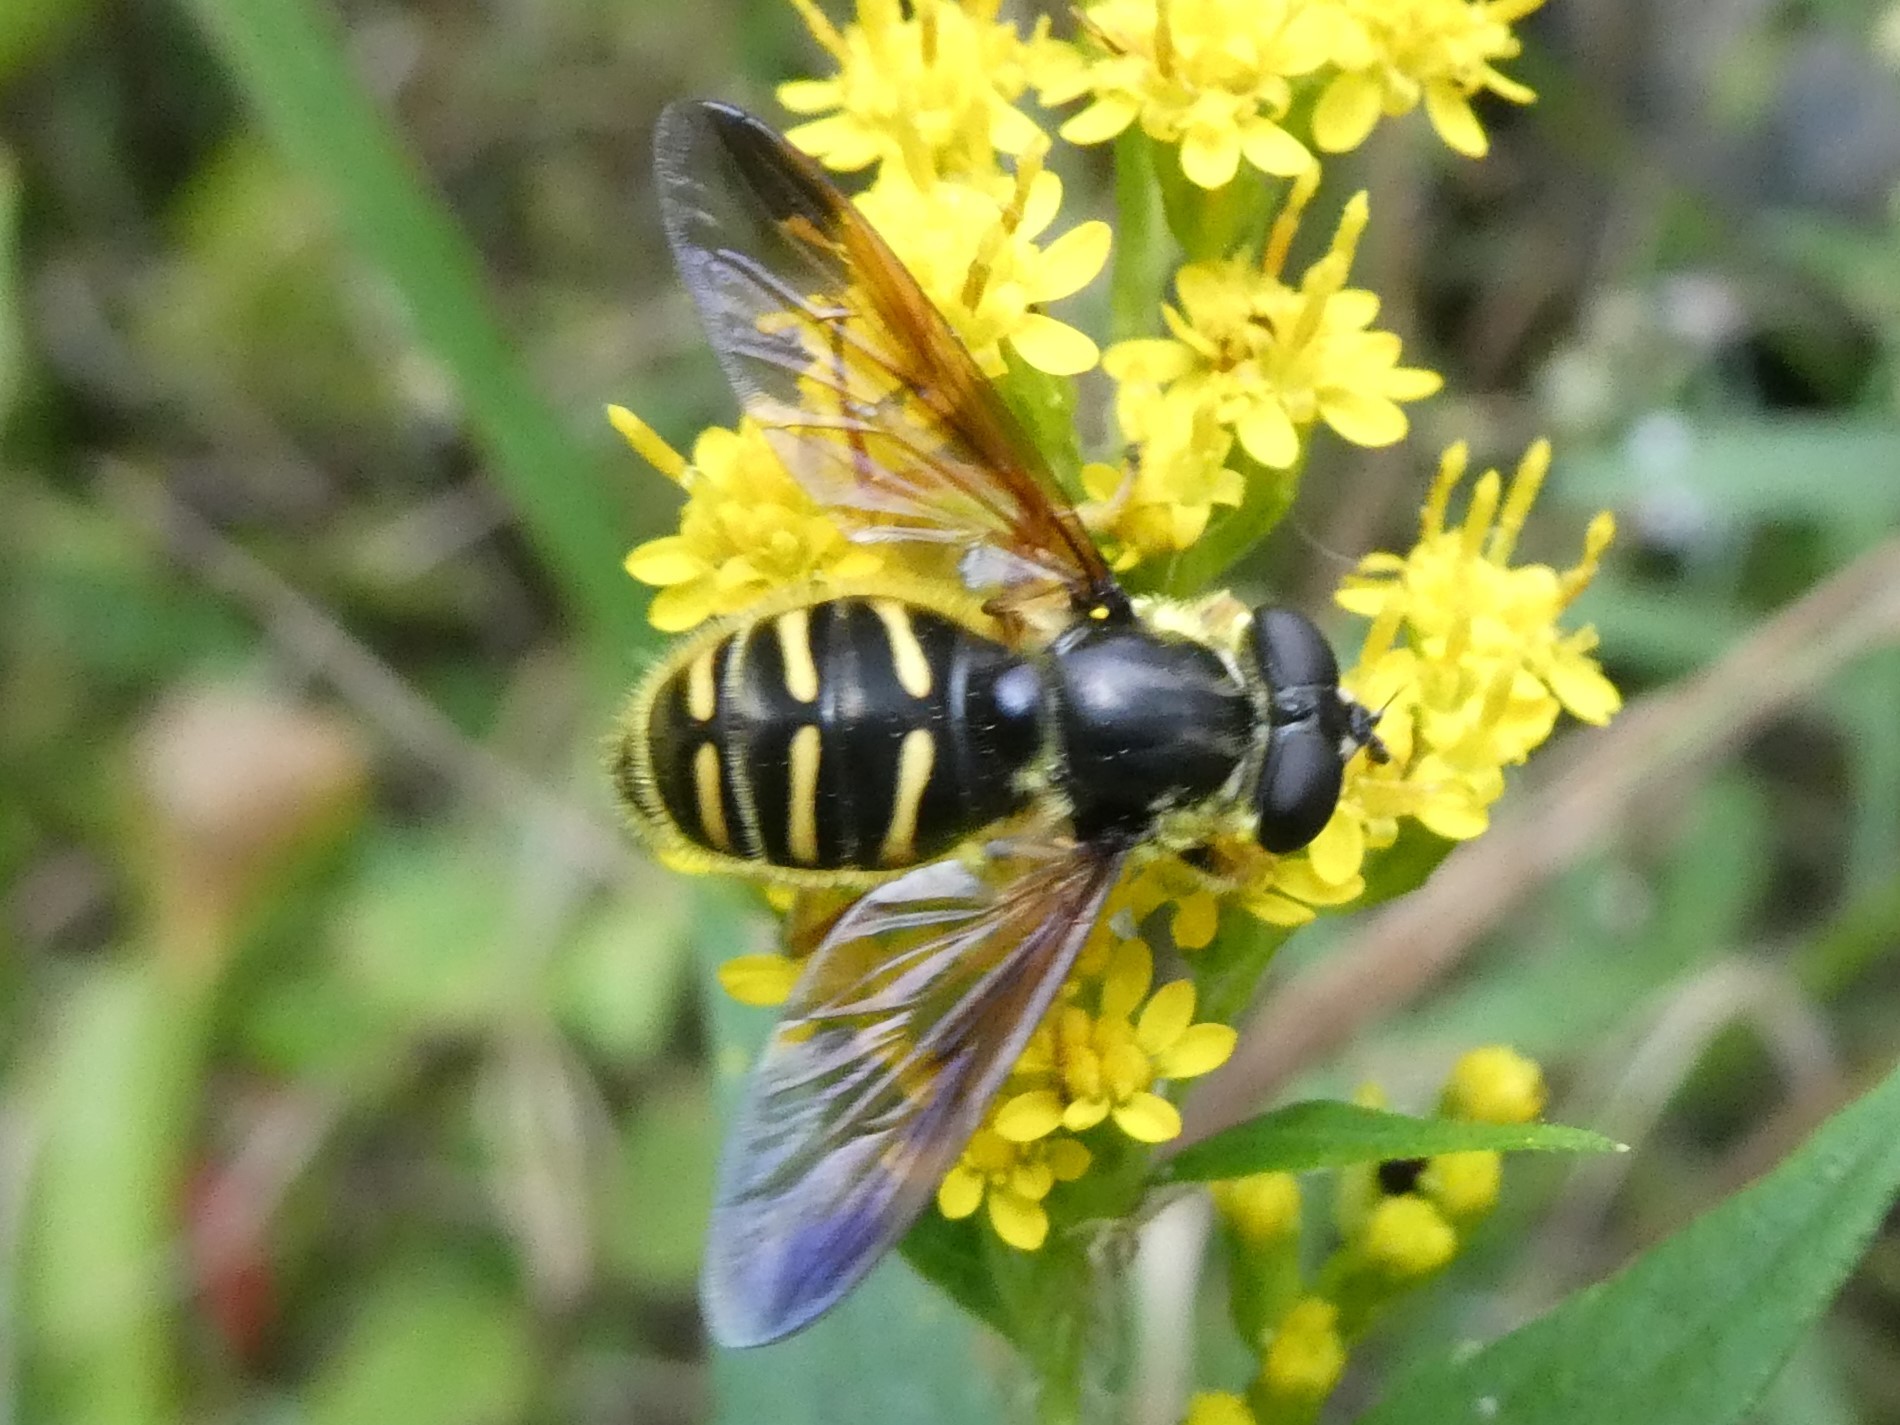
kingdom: Animalia
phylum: Arthropoda
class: Insecta
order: Diptera
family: Syrphidae
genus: Sericomyia
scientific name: Sericomyia chrysotoxoides
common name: Oblique-banded pond fly
